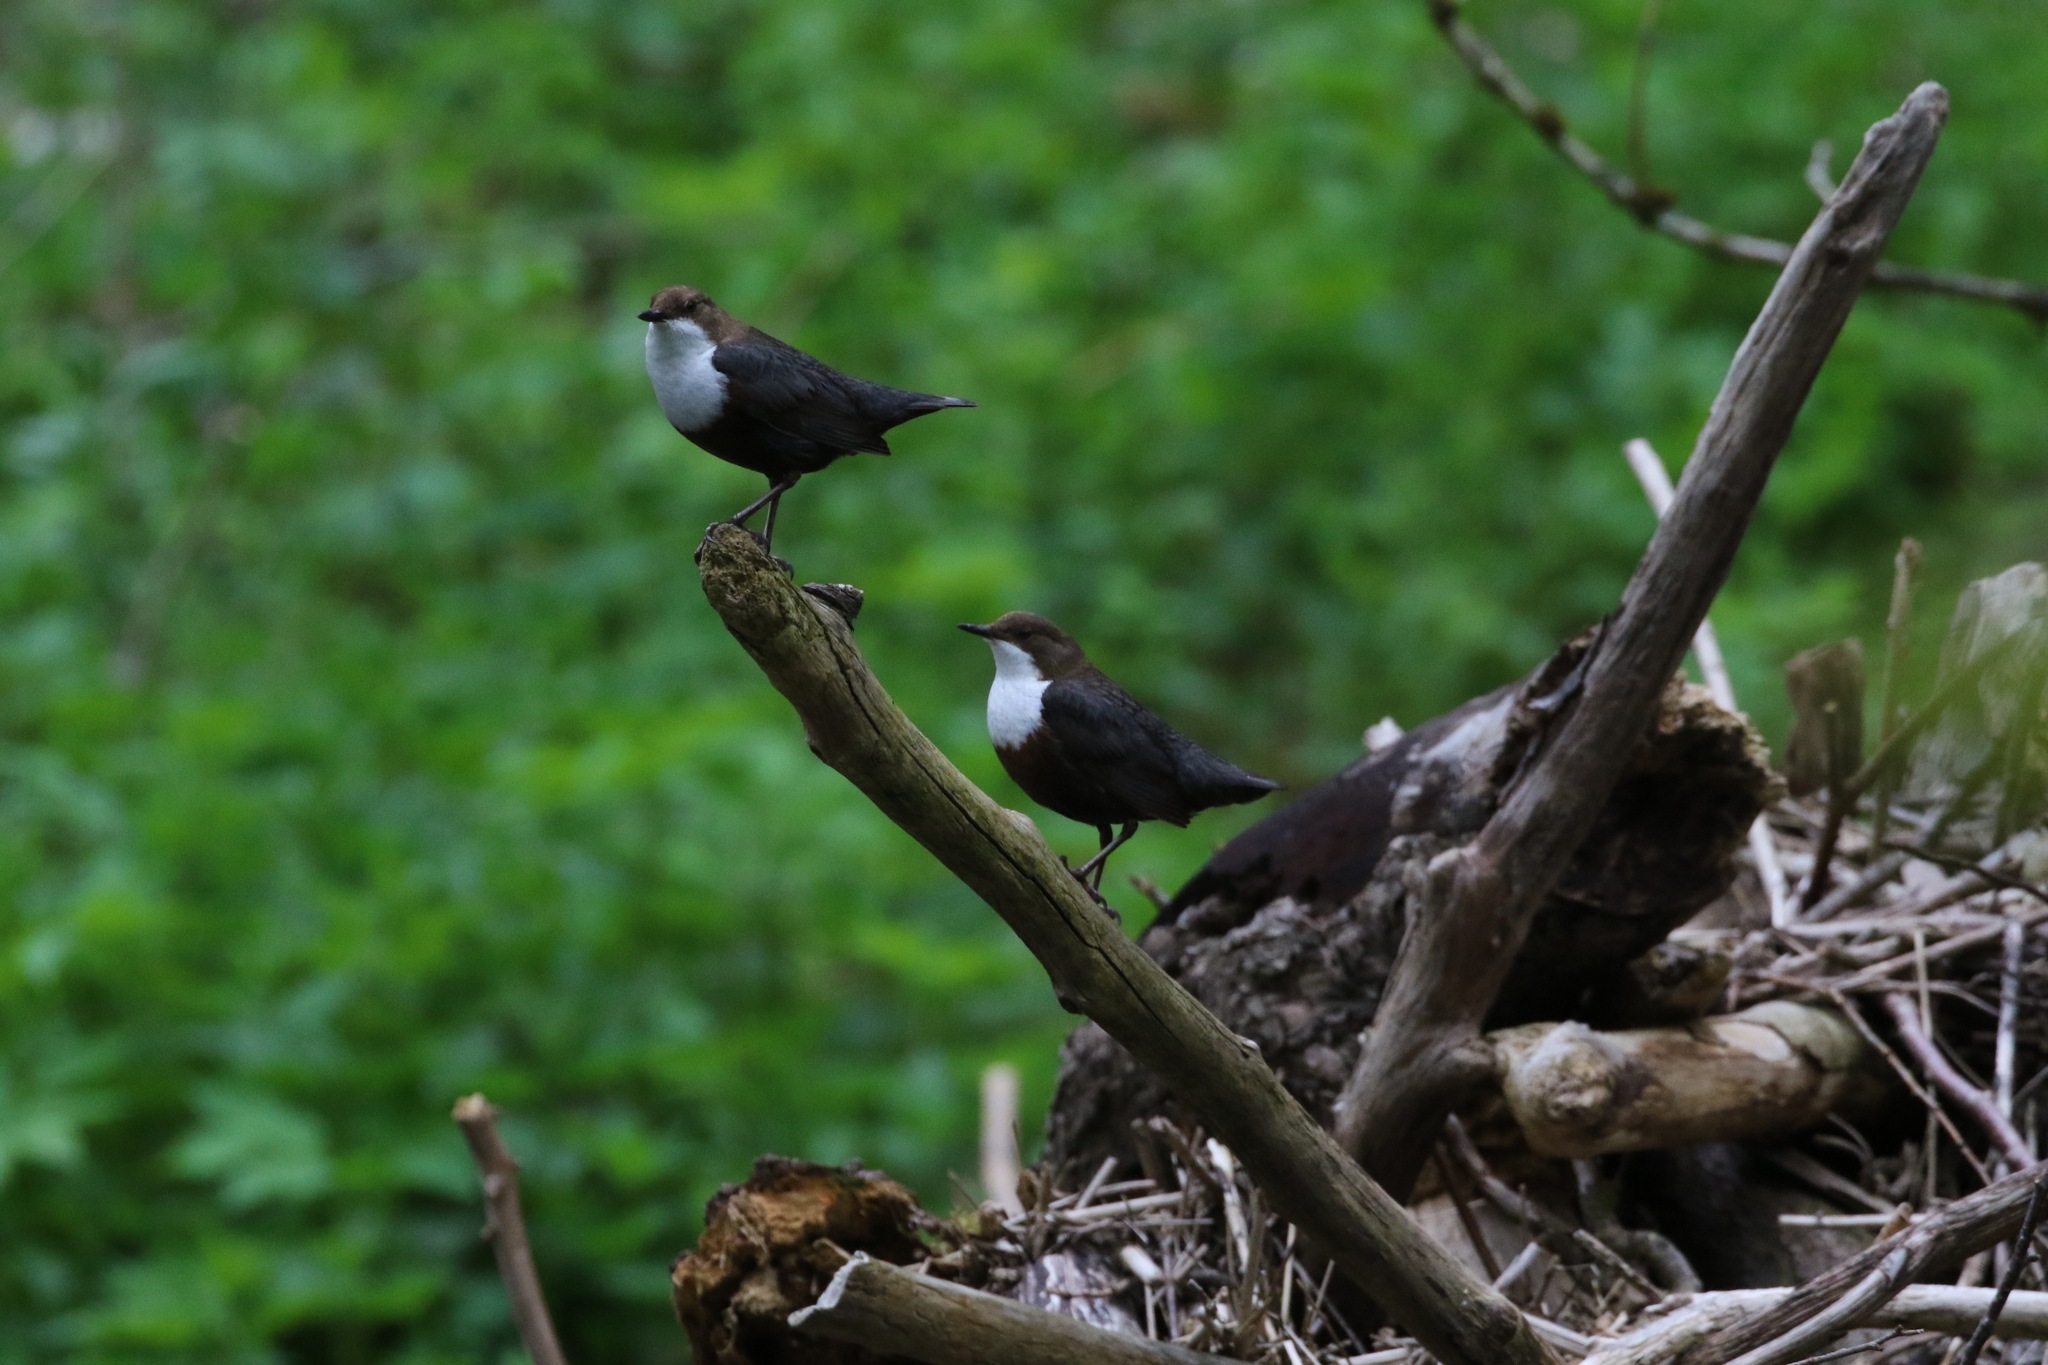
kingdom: Animalia
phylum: Chordata
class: Aves
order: Passeriformes
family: Cinclidae
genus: Cinclus
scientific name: Cinclus cinclus
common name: White-throated dipper
